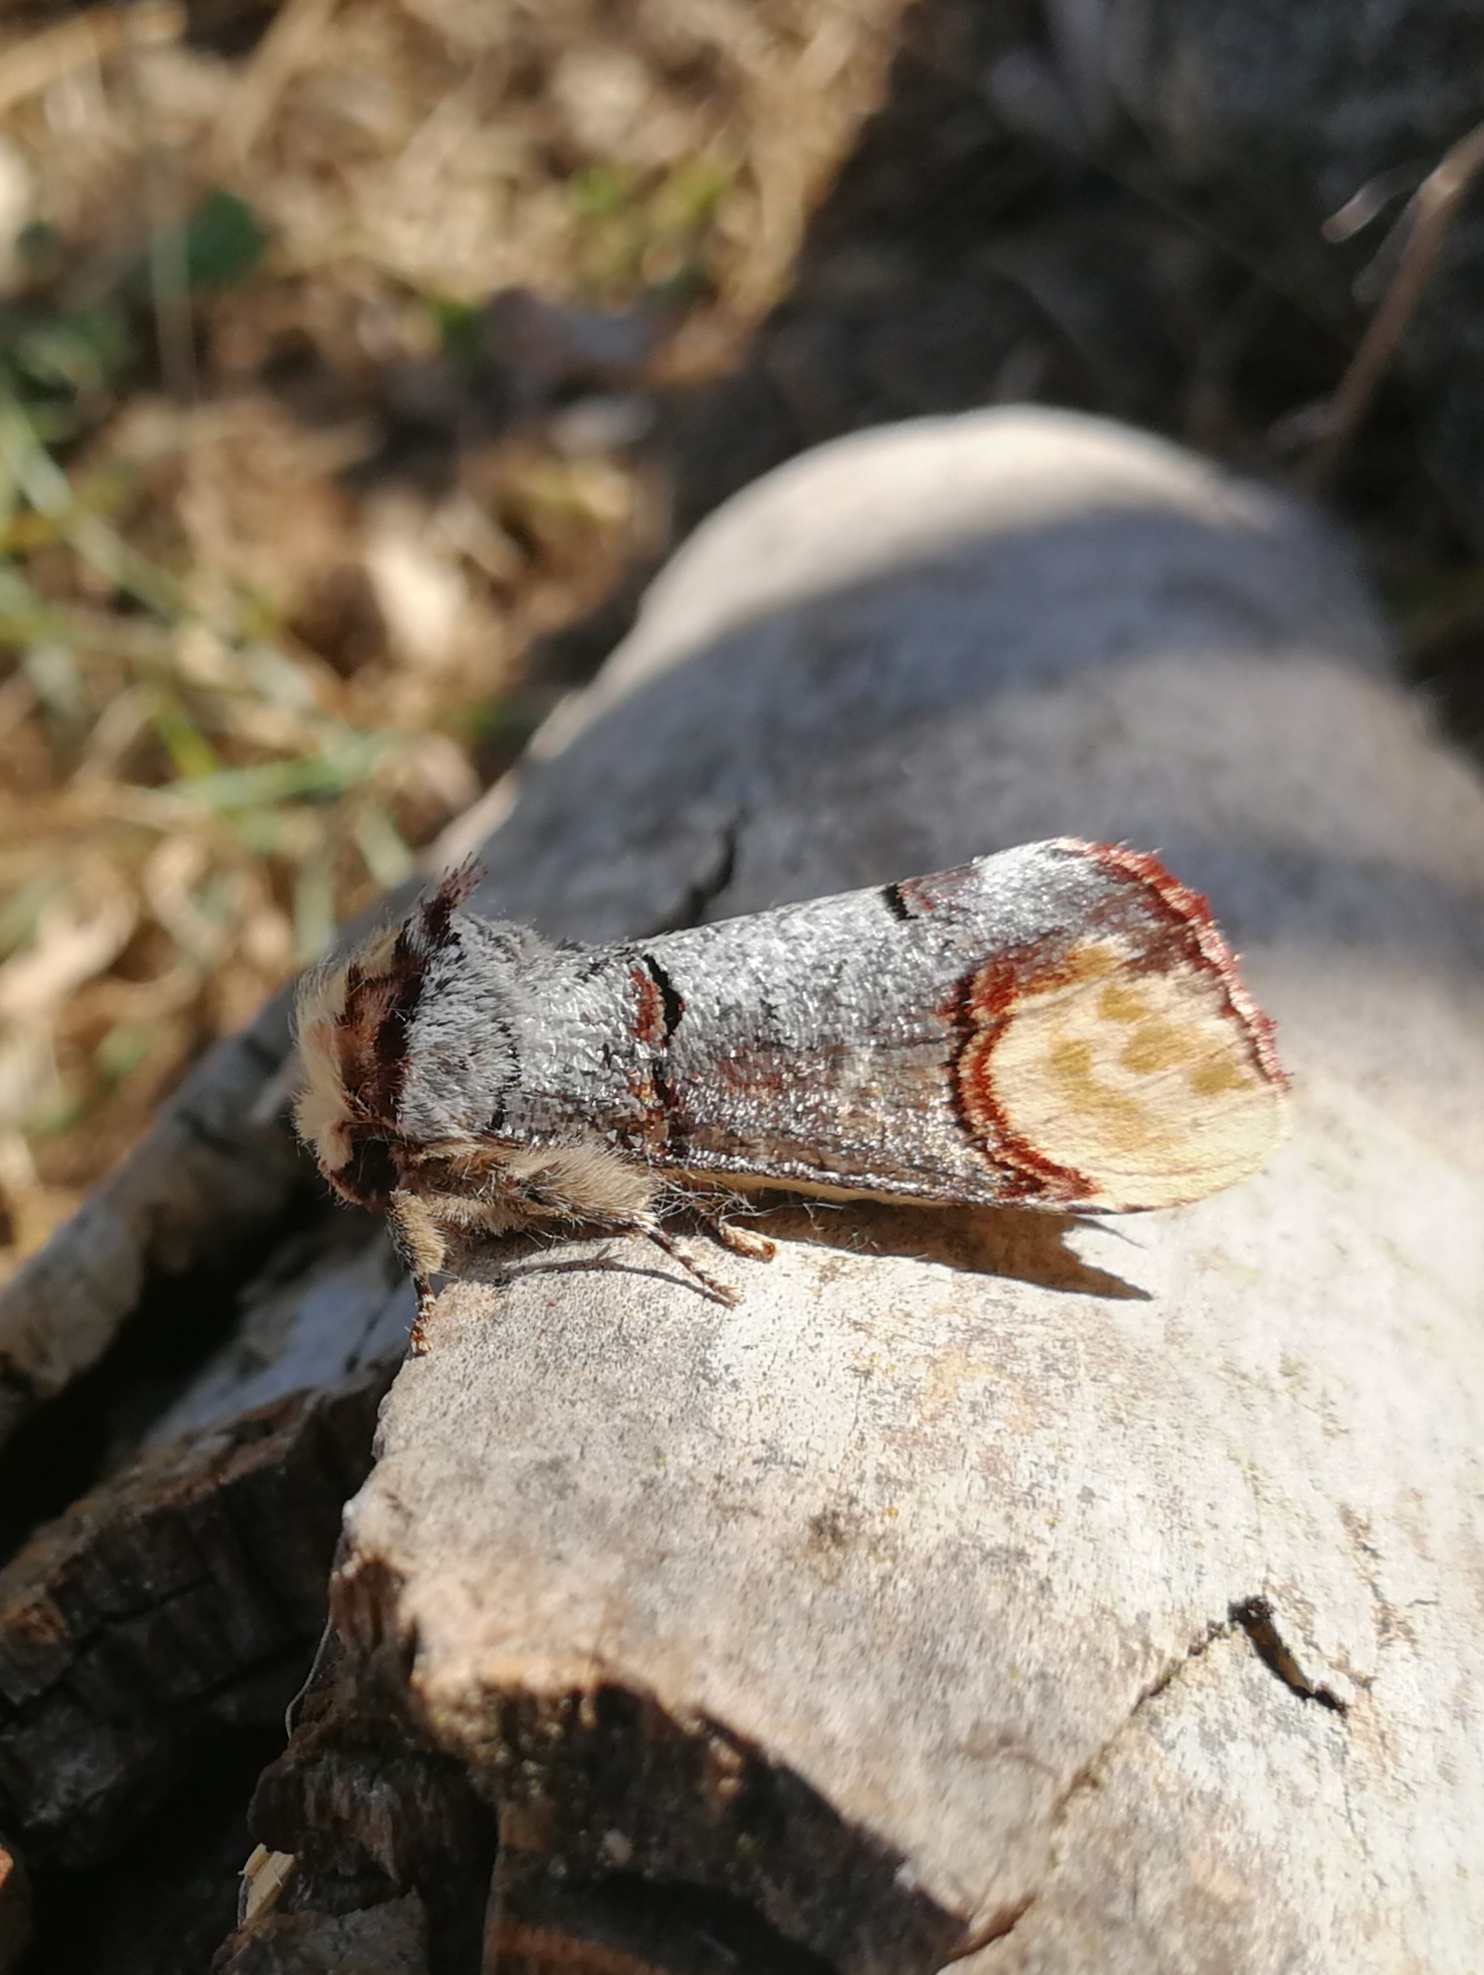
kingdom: Animalia
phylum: Arthropoda
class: Insecta
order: Lepidoptera
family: Notodontidae
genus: Phalera
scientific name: Phalera bucephala
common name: Buff-tip
